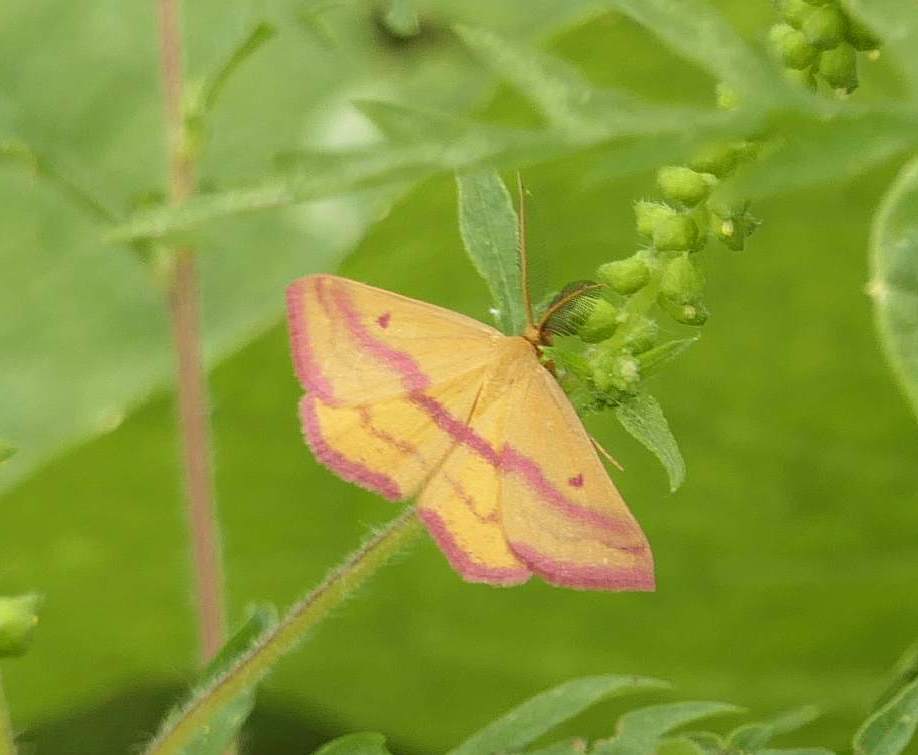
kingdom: Animalia
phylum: Arthropoda
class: Insecta
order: Lepidoptera
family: Geometridae
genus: Haematopis
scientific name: Haematopis grataria
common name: Chickweed geometer
